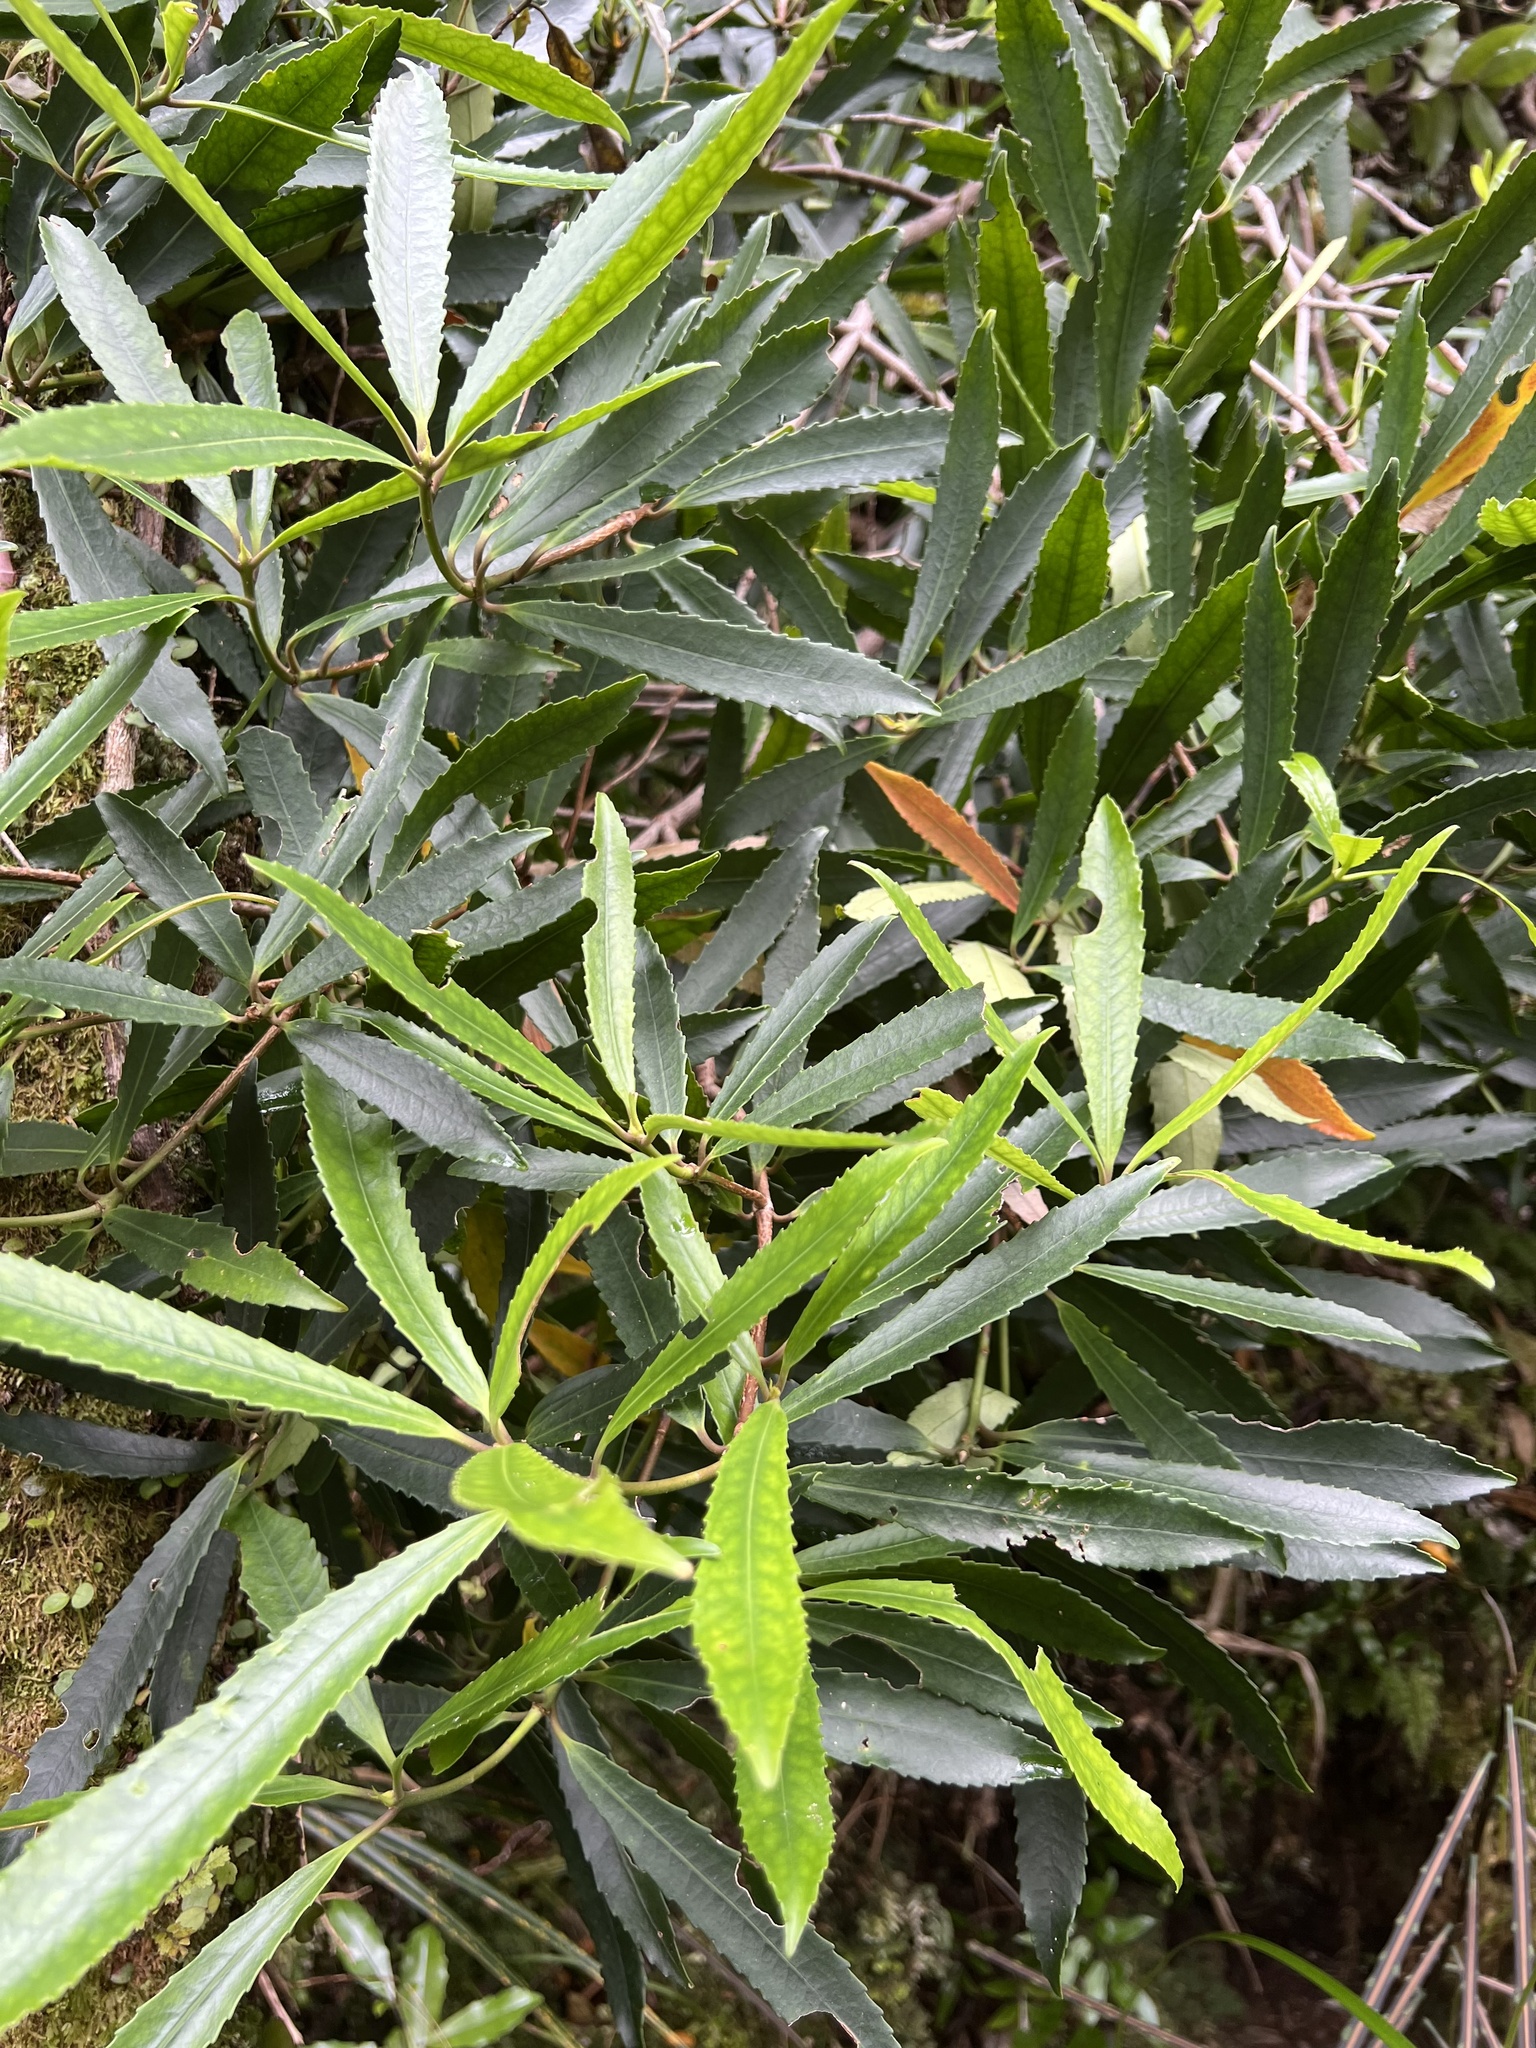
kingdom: Plantae
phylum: Tracheophyta
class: Magnoliopsida
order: Crossosomatales
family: Ixerbaceae
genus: Ixerba
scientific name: Ixerba brexioides
